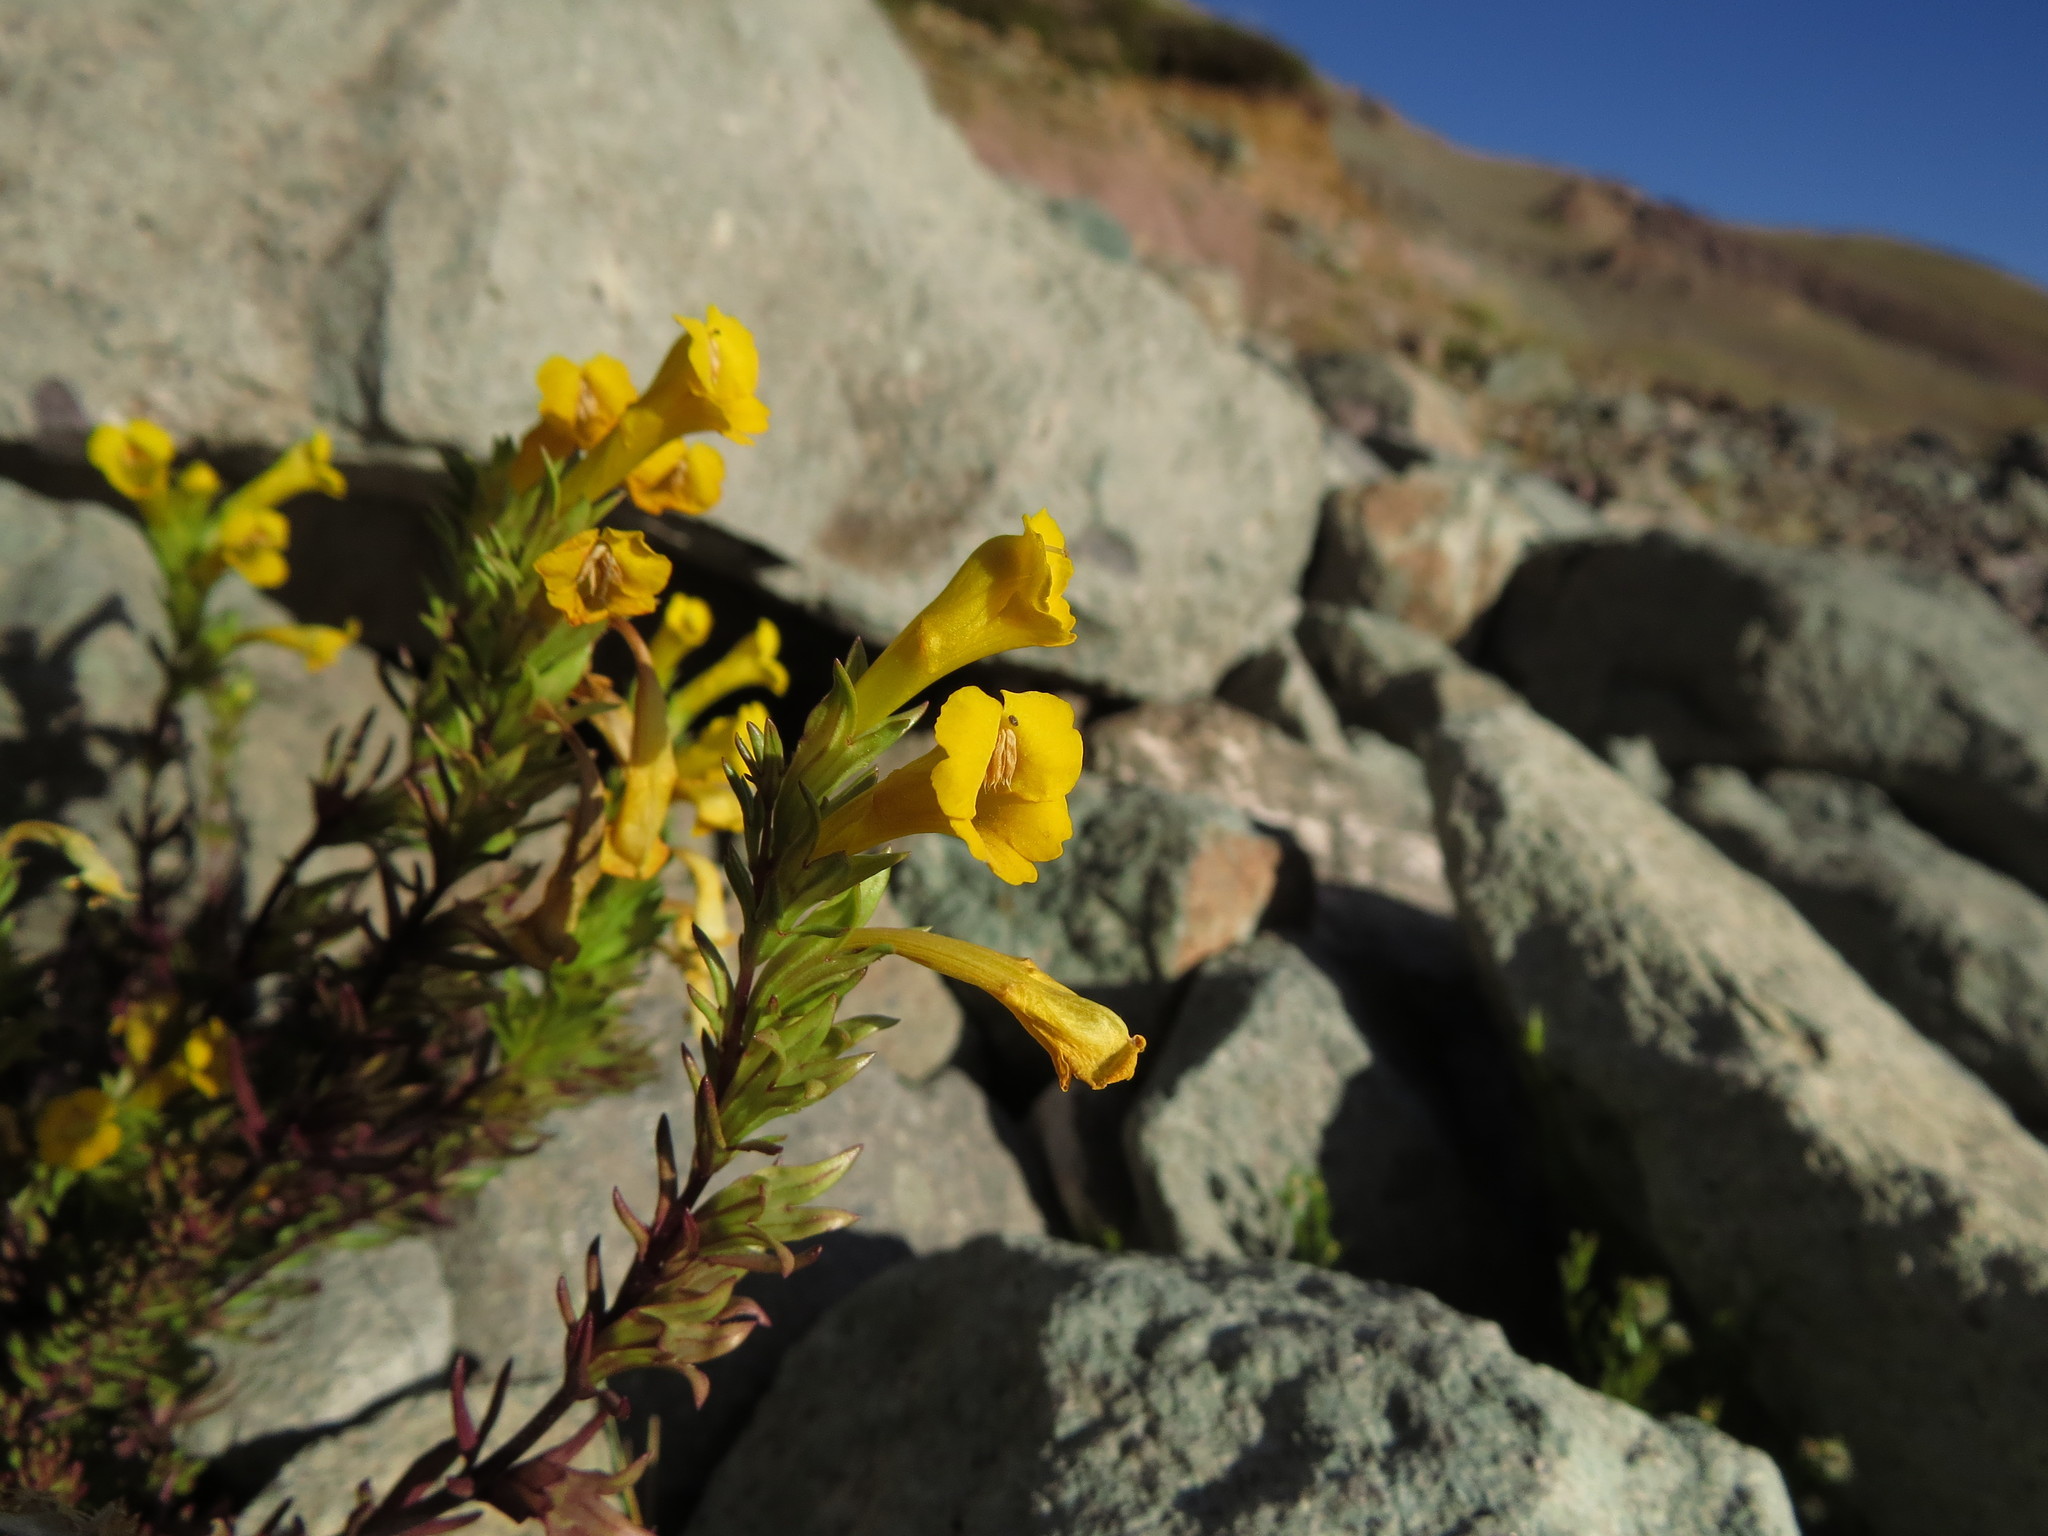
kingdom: Plantae
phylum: Tracheophyta
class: Magnoliopsida
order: Lamiales
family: Orobanchaceae
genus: Euphrasia
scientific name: Euphrasia andicola
